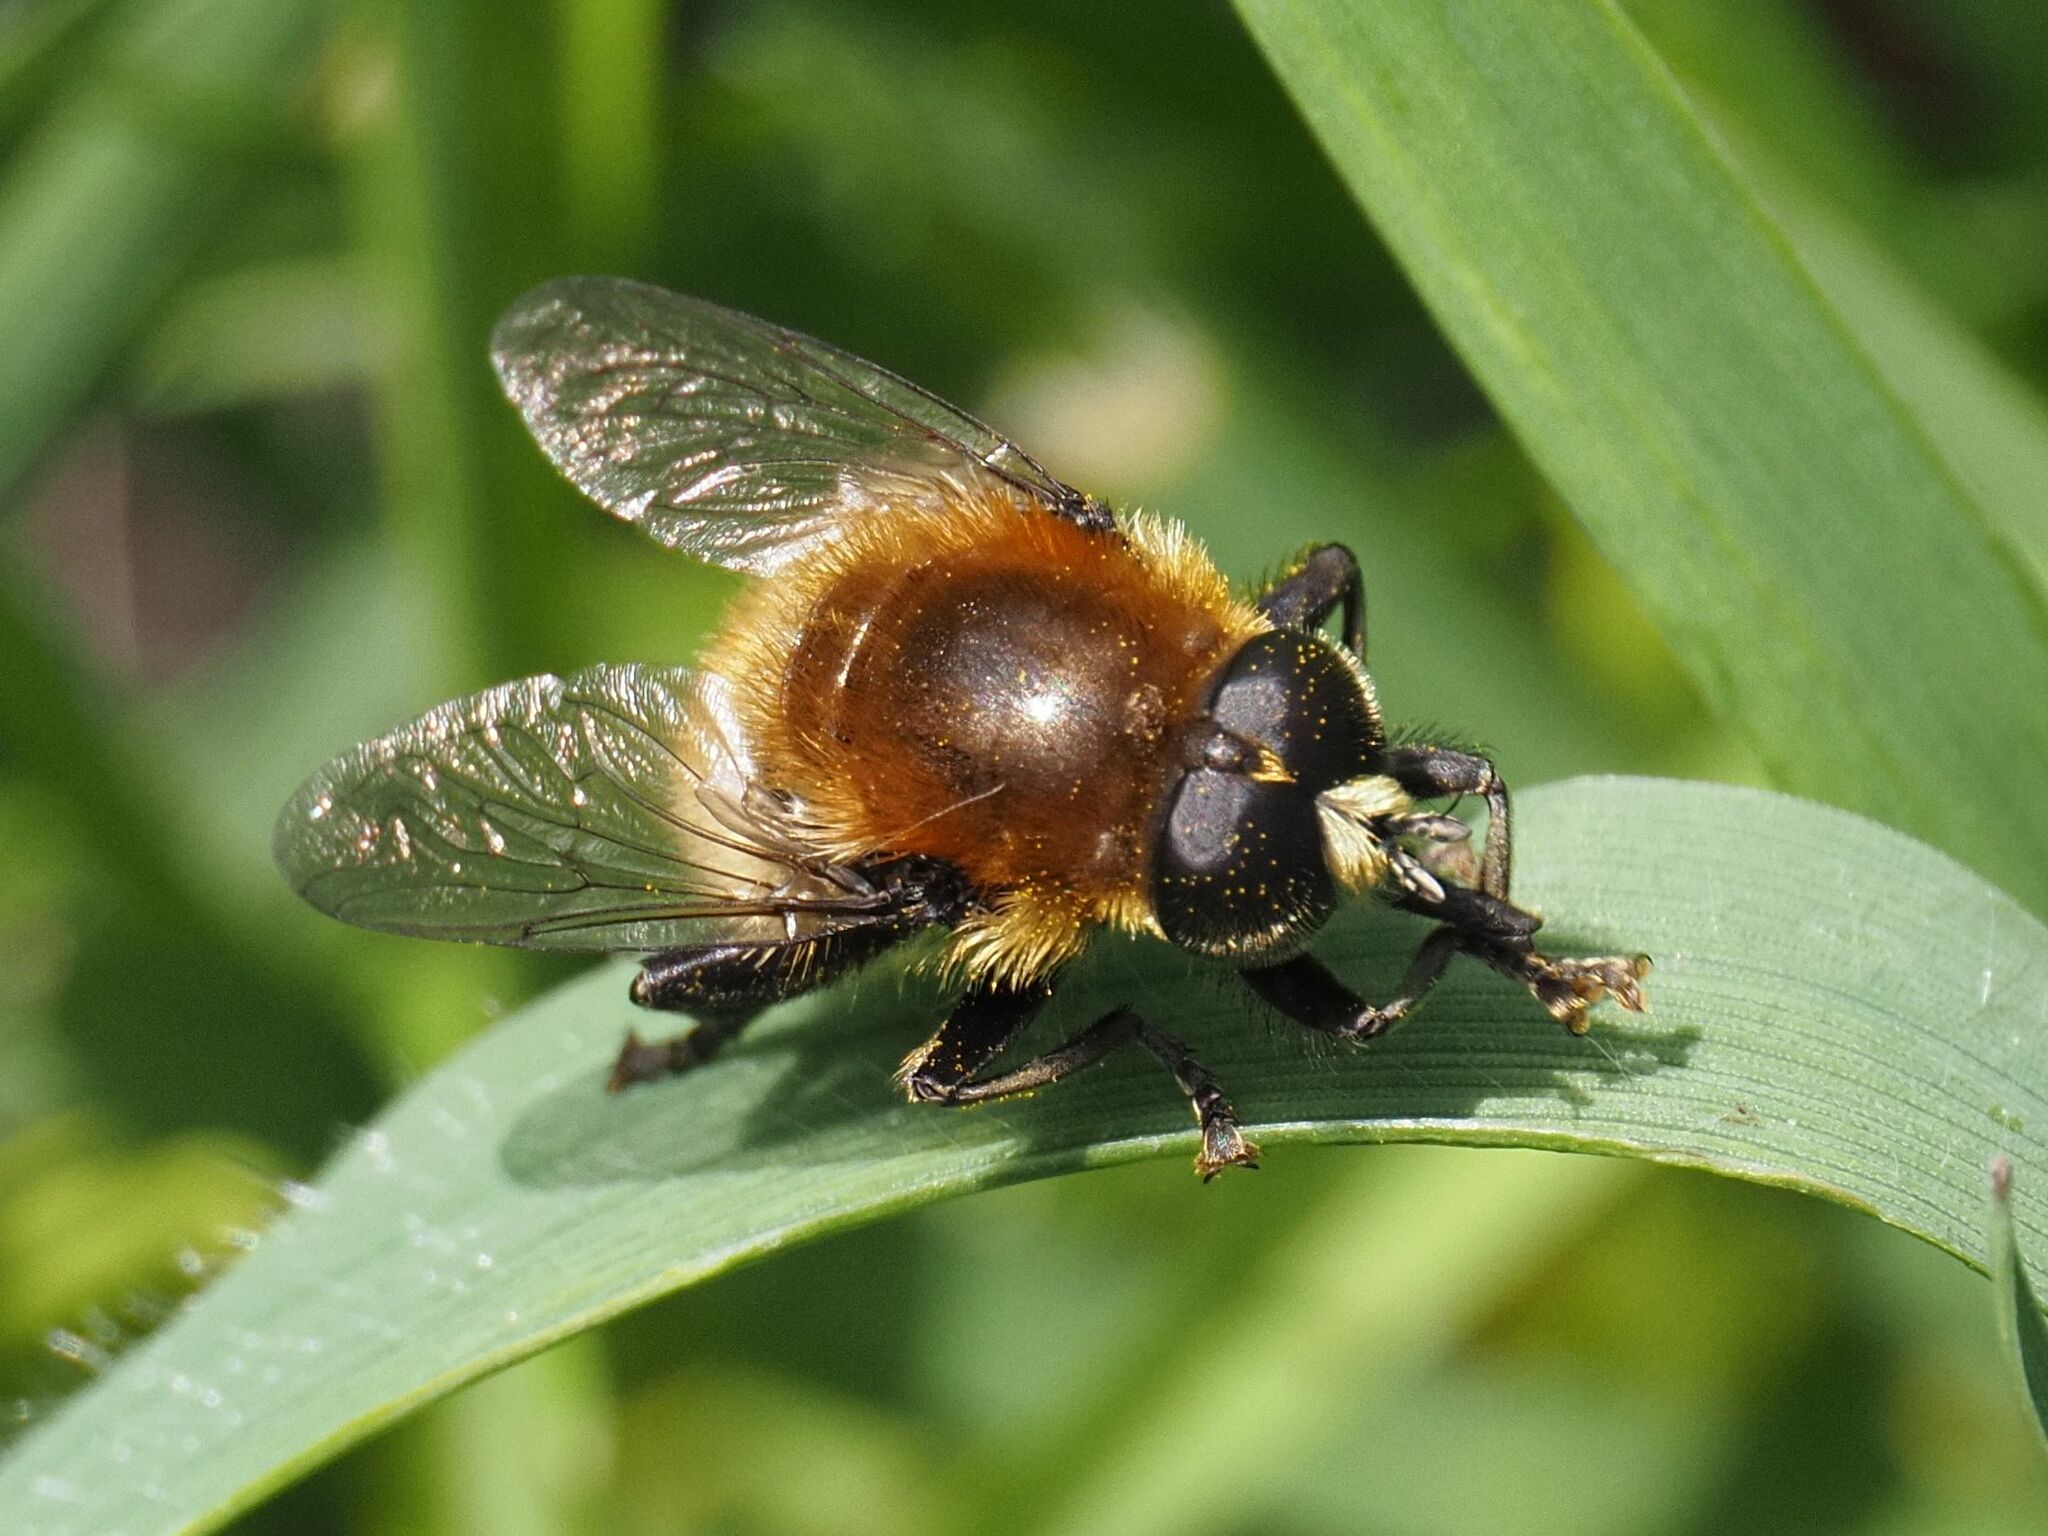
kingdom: Animalia
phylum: Arthropoda
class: Insecta
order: Diptera
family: Syrphidae
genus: Merodon
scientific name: Merodon equestris
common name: Greater bulb-fly
